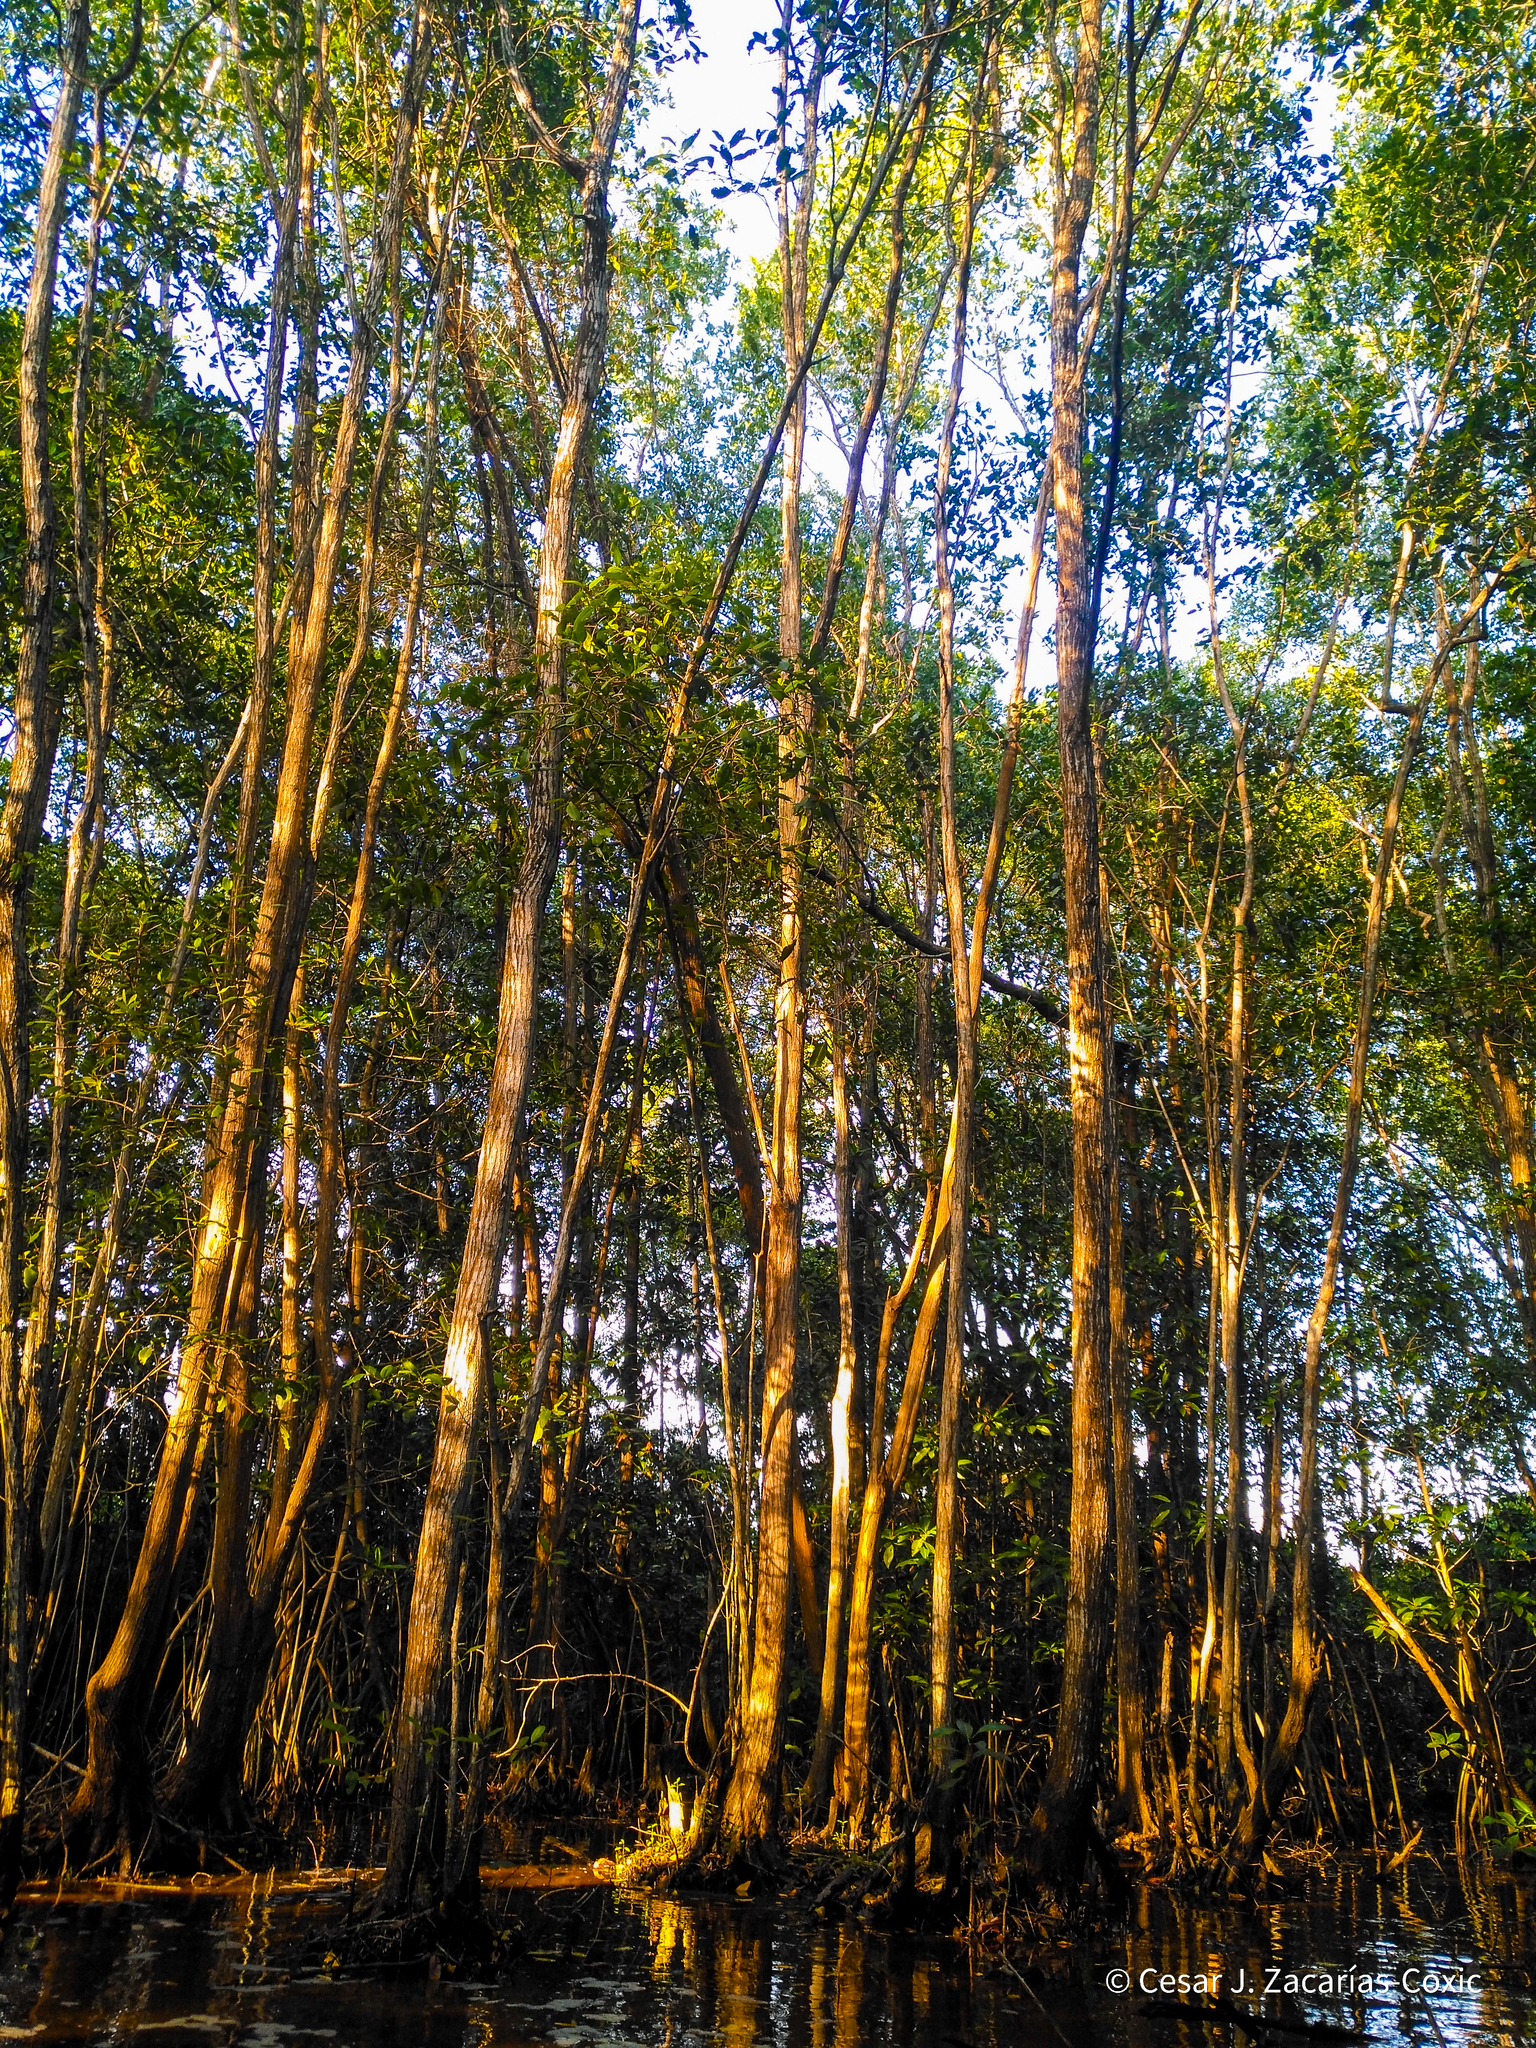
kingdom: Plantae
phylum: Tracheophyta
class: Magnoliopsida
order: Myrtales
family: Combretaceae
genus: Laguncularia
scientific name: Laguncularia racemosa
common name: White mangrove
